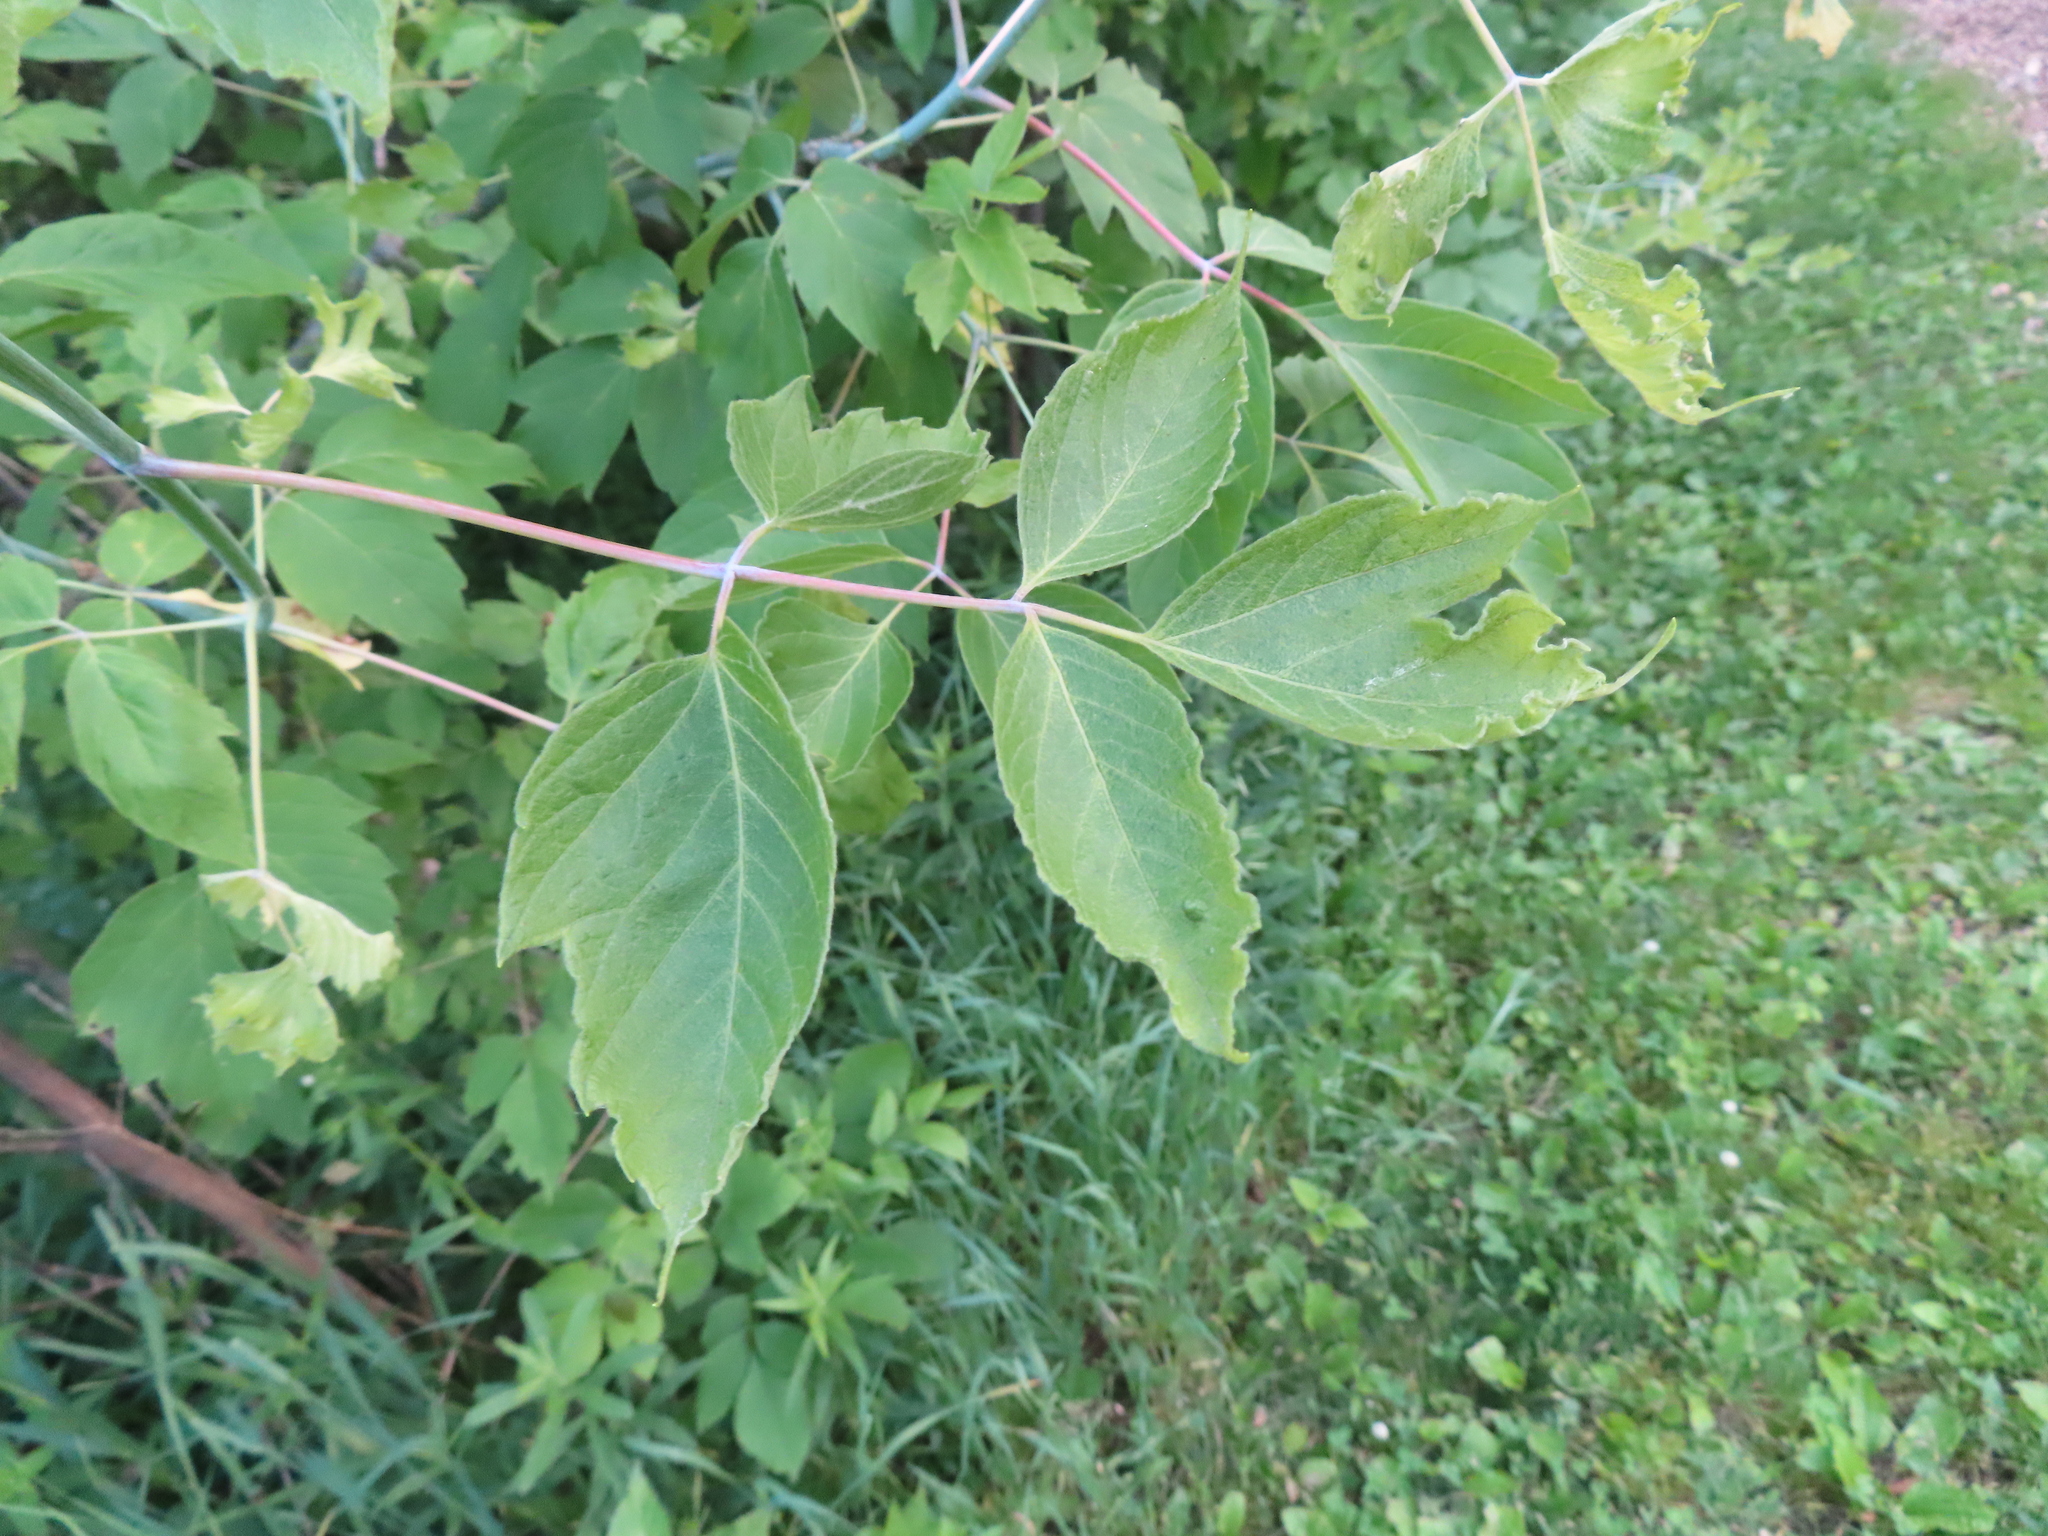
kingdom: Plantae
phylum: Tracheophyta
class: Magnoliopsida
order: Sapindales
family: Sapindaceae
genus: Acer
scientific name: Acer negundo
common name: Ashleaf maple
